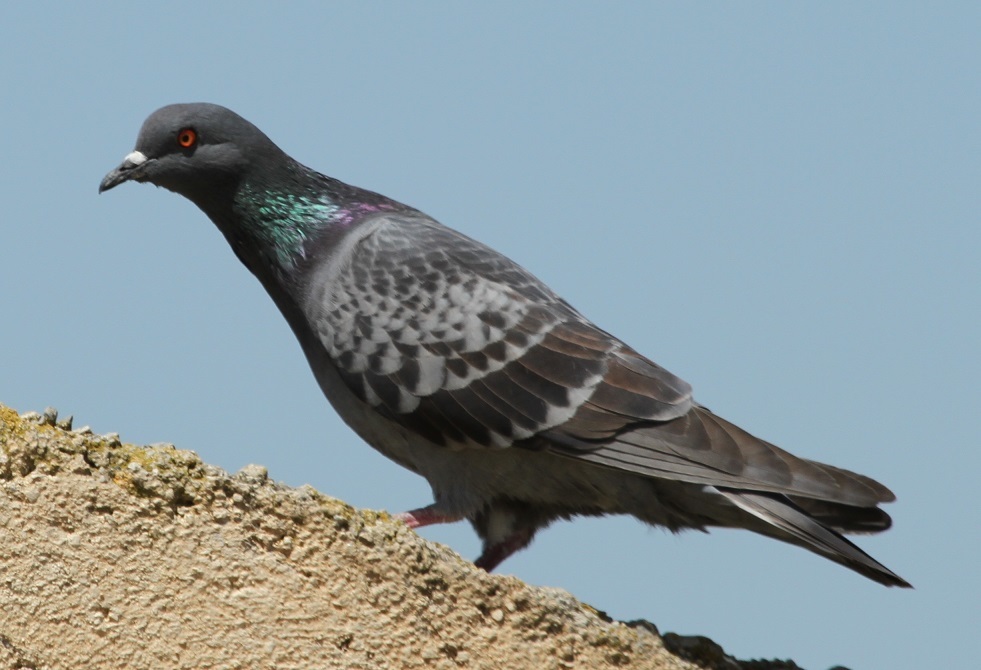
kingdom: Animalia
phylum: Chordata
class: Aves
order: Columbiformes
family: Columbidae
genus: Columba
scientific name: Columba livia
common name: Rock pigeon
